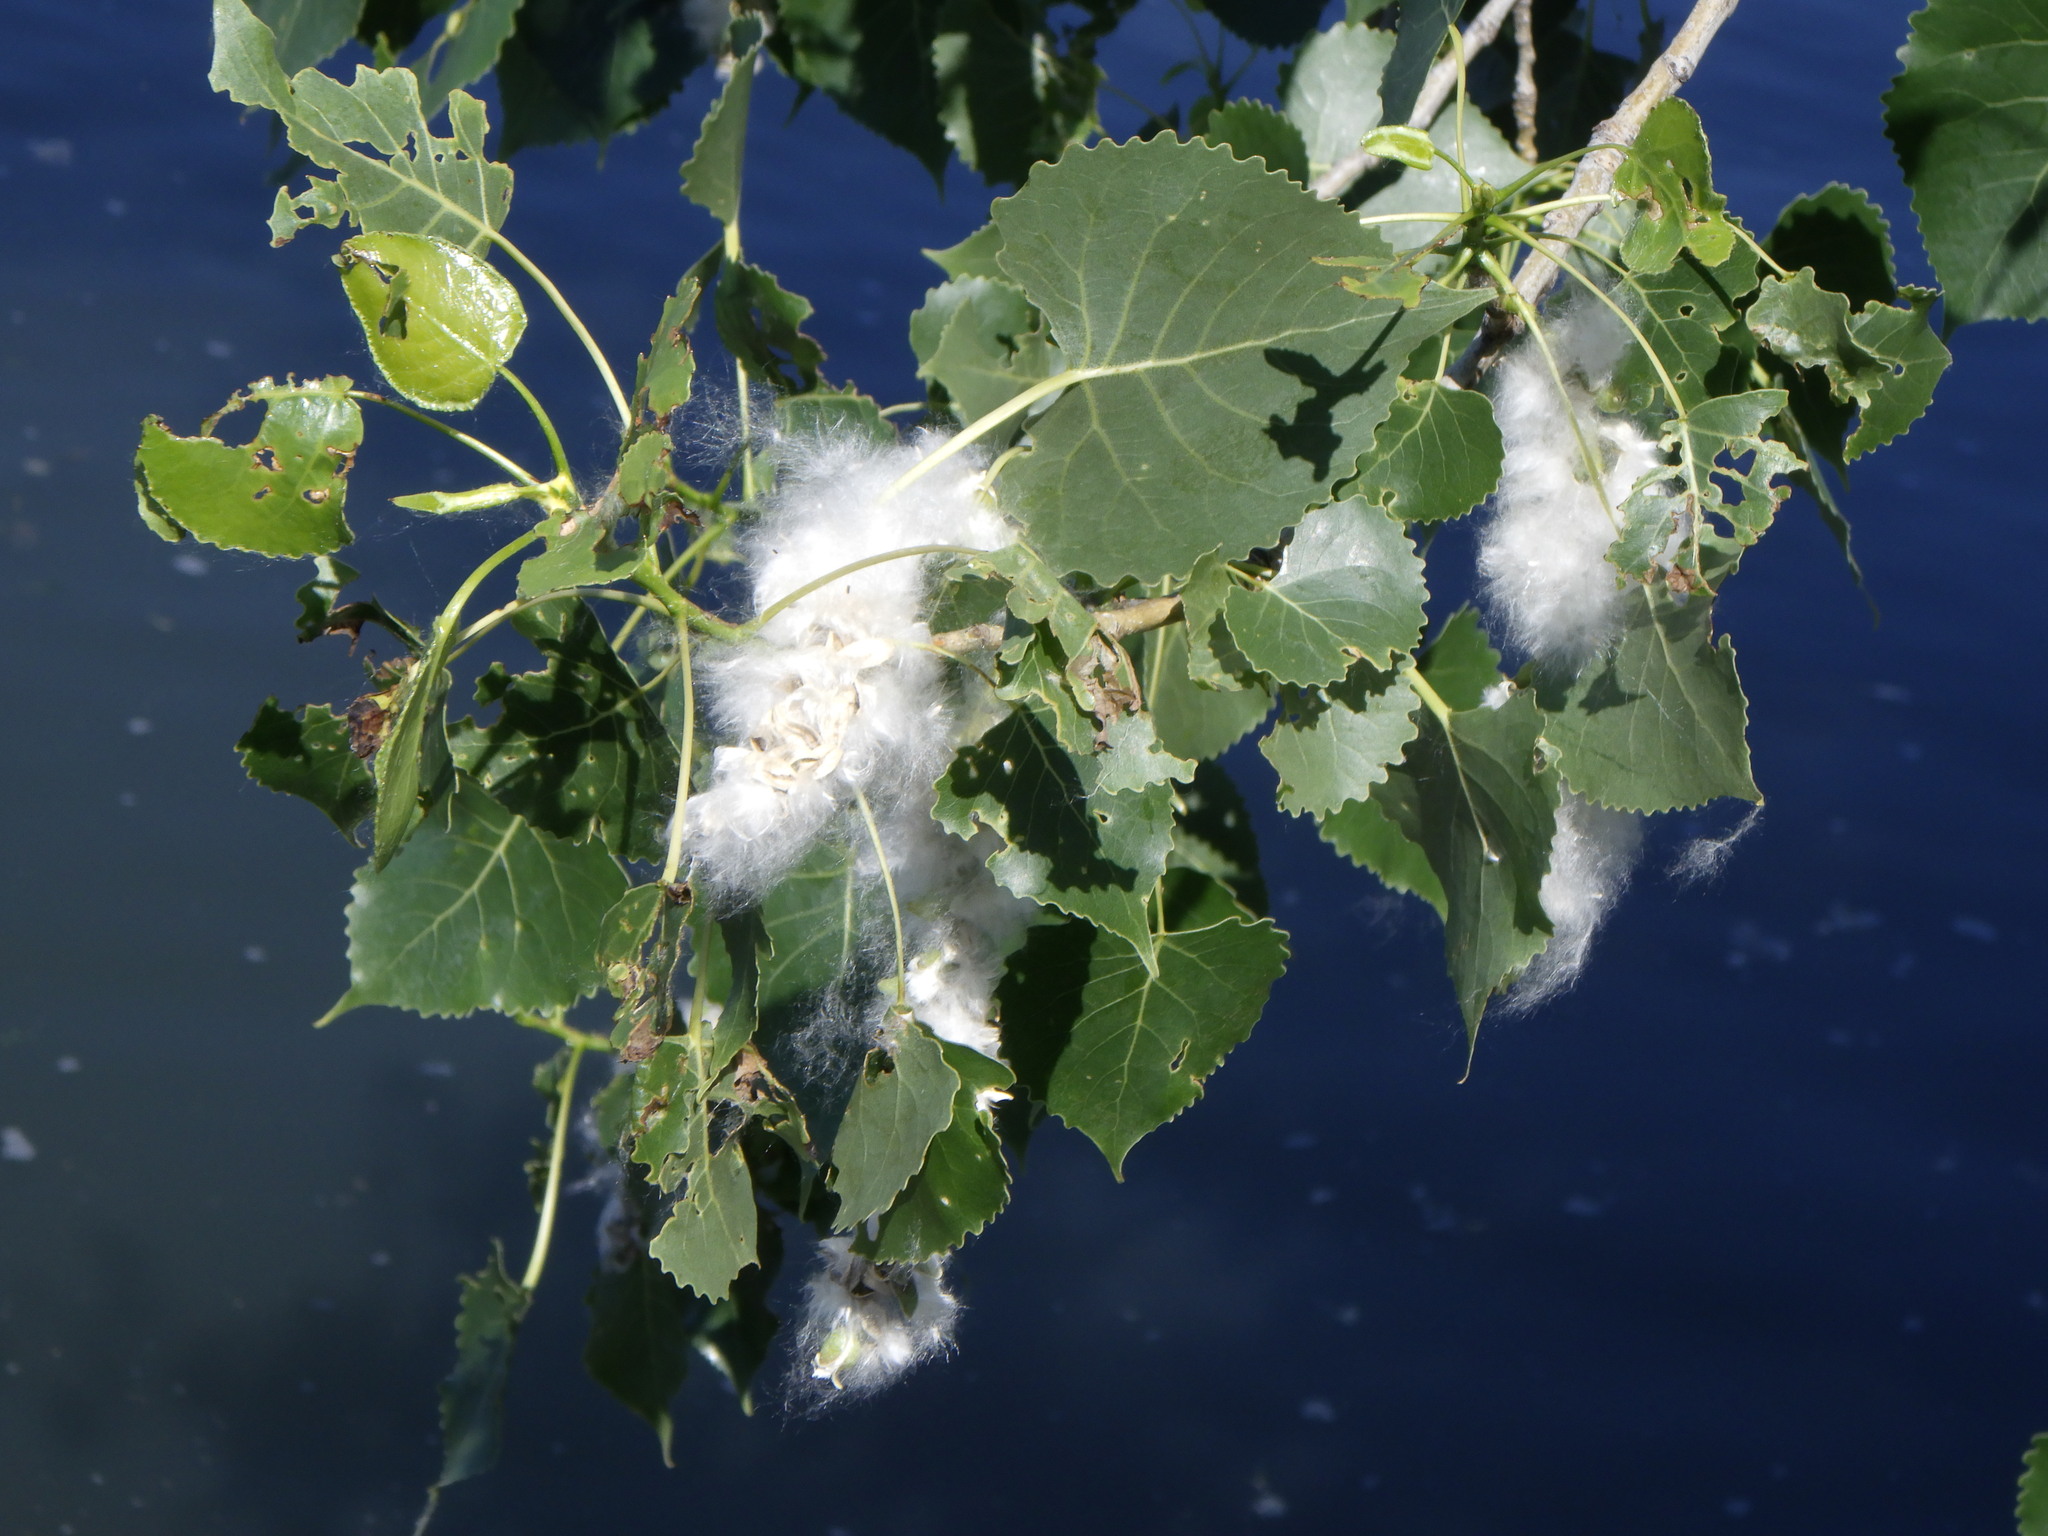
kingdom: Plantae
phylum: Tracheophyta
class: Magnoliopsida
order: Malpighiales
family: Salicaceae
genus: Populus
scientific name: Populus deltoides
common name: Eastern cottonwood
